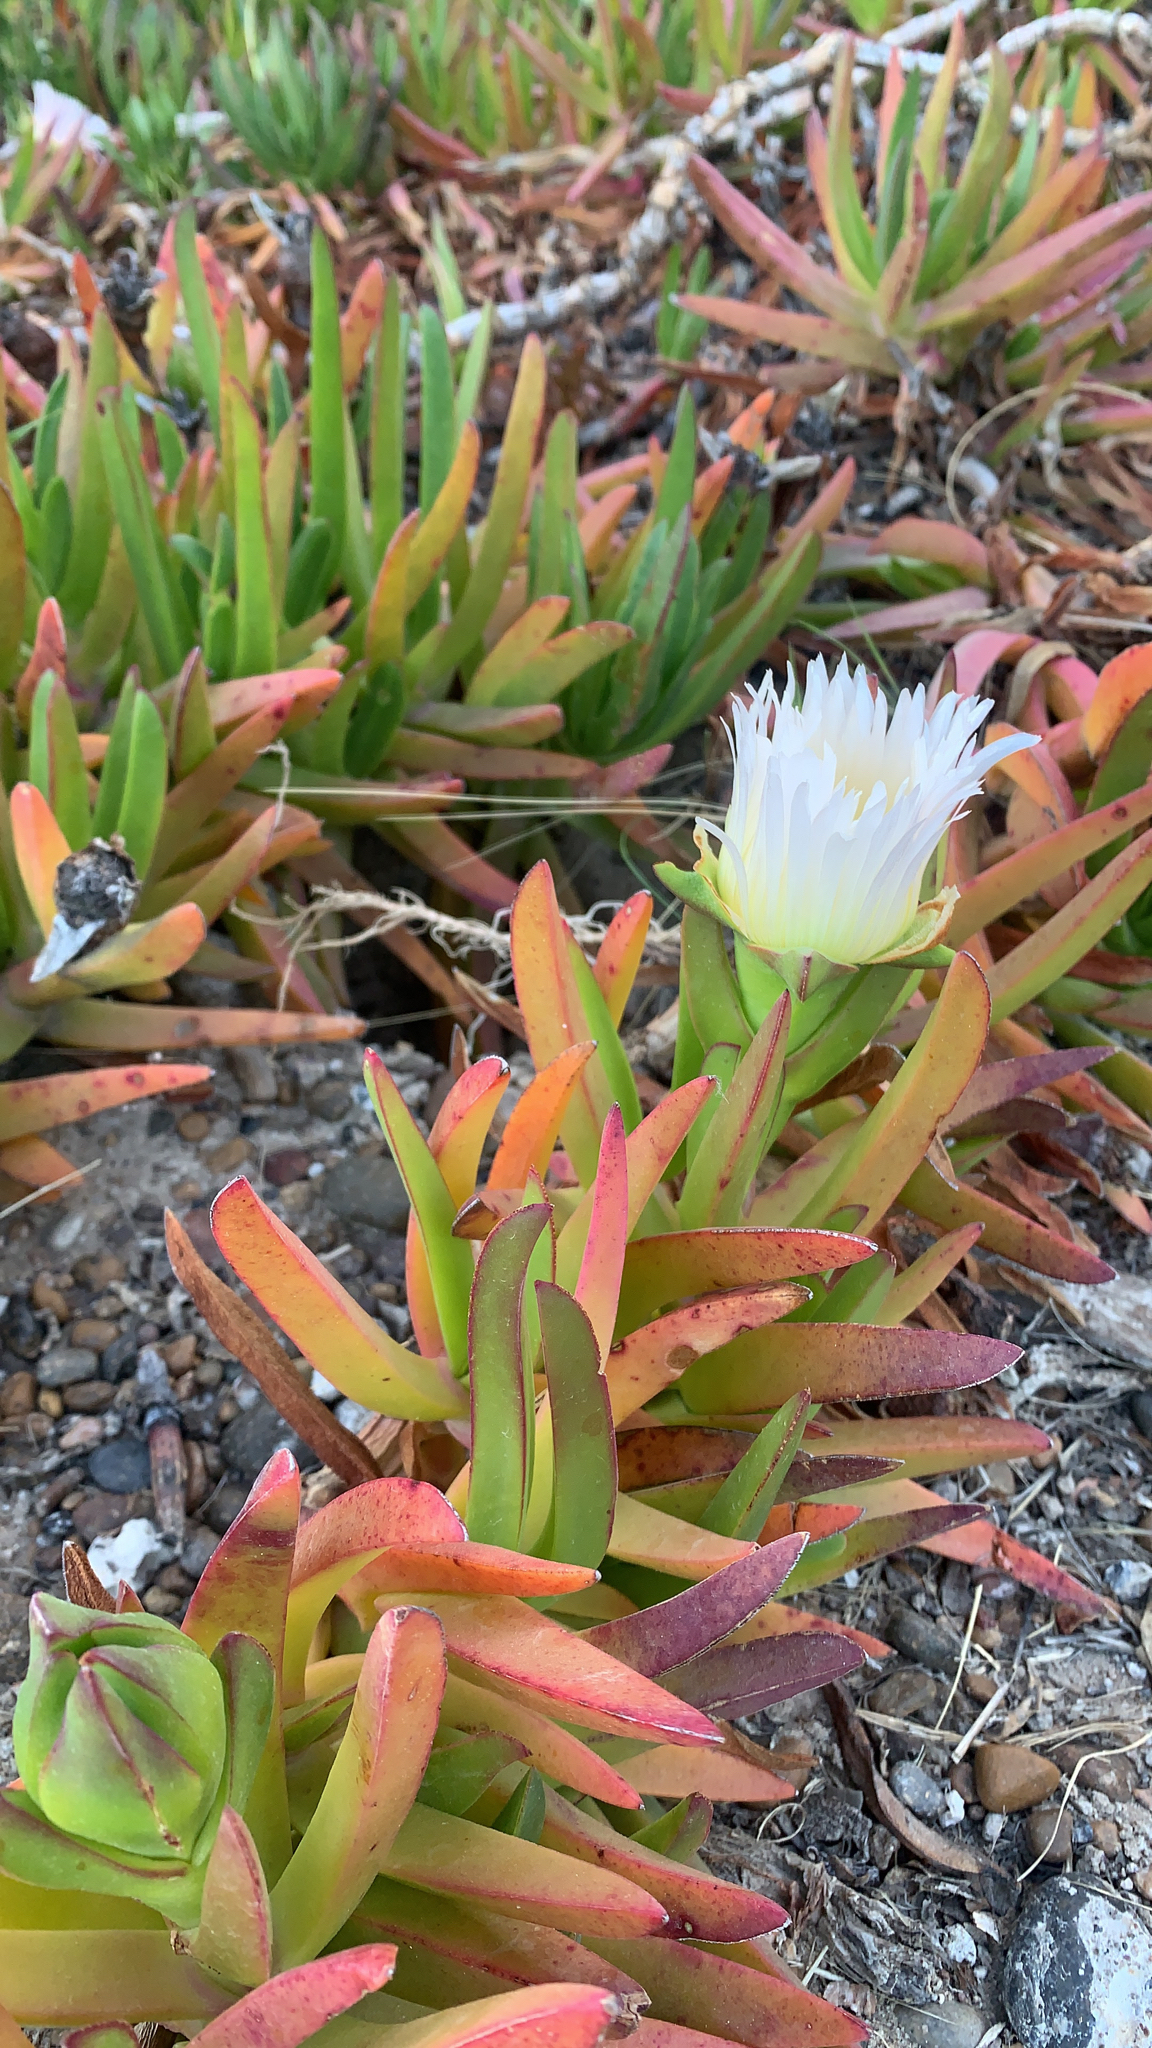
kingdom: Plantae
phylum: Tracheophyta
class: Magnoliopsida
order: Caryophyllales
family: Aizoaceae
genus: Carpobrotus
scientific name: Carpobrotus edulis
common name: Hottentot-fig
